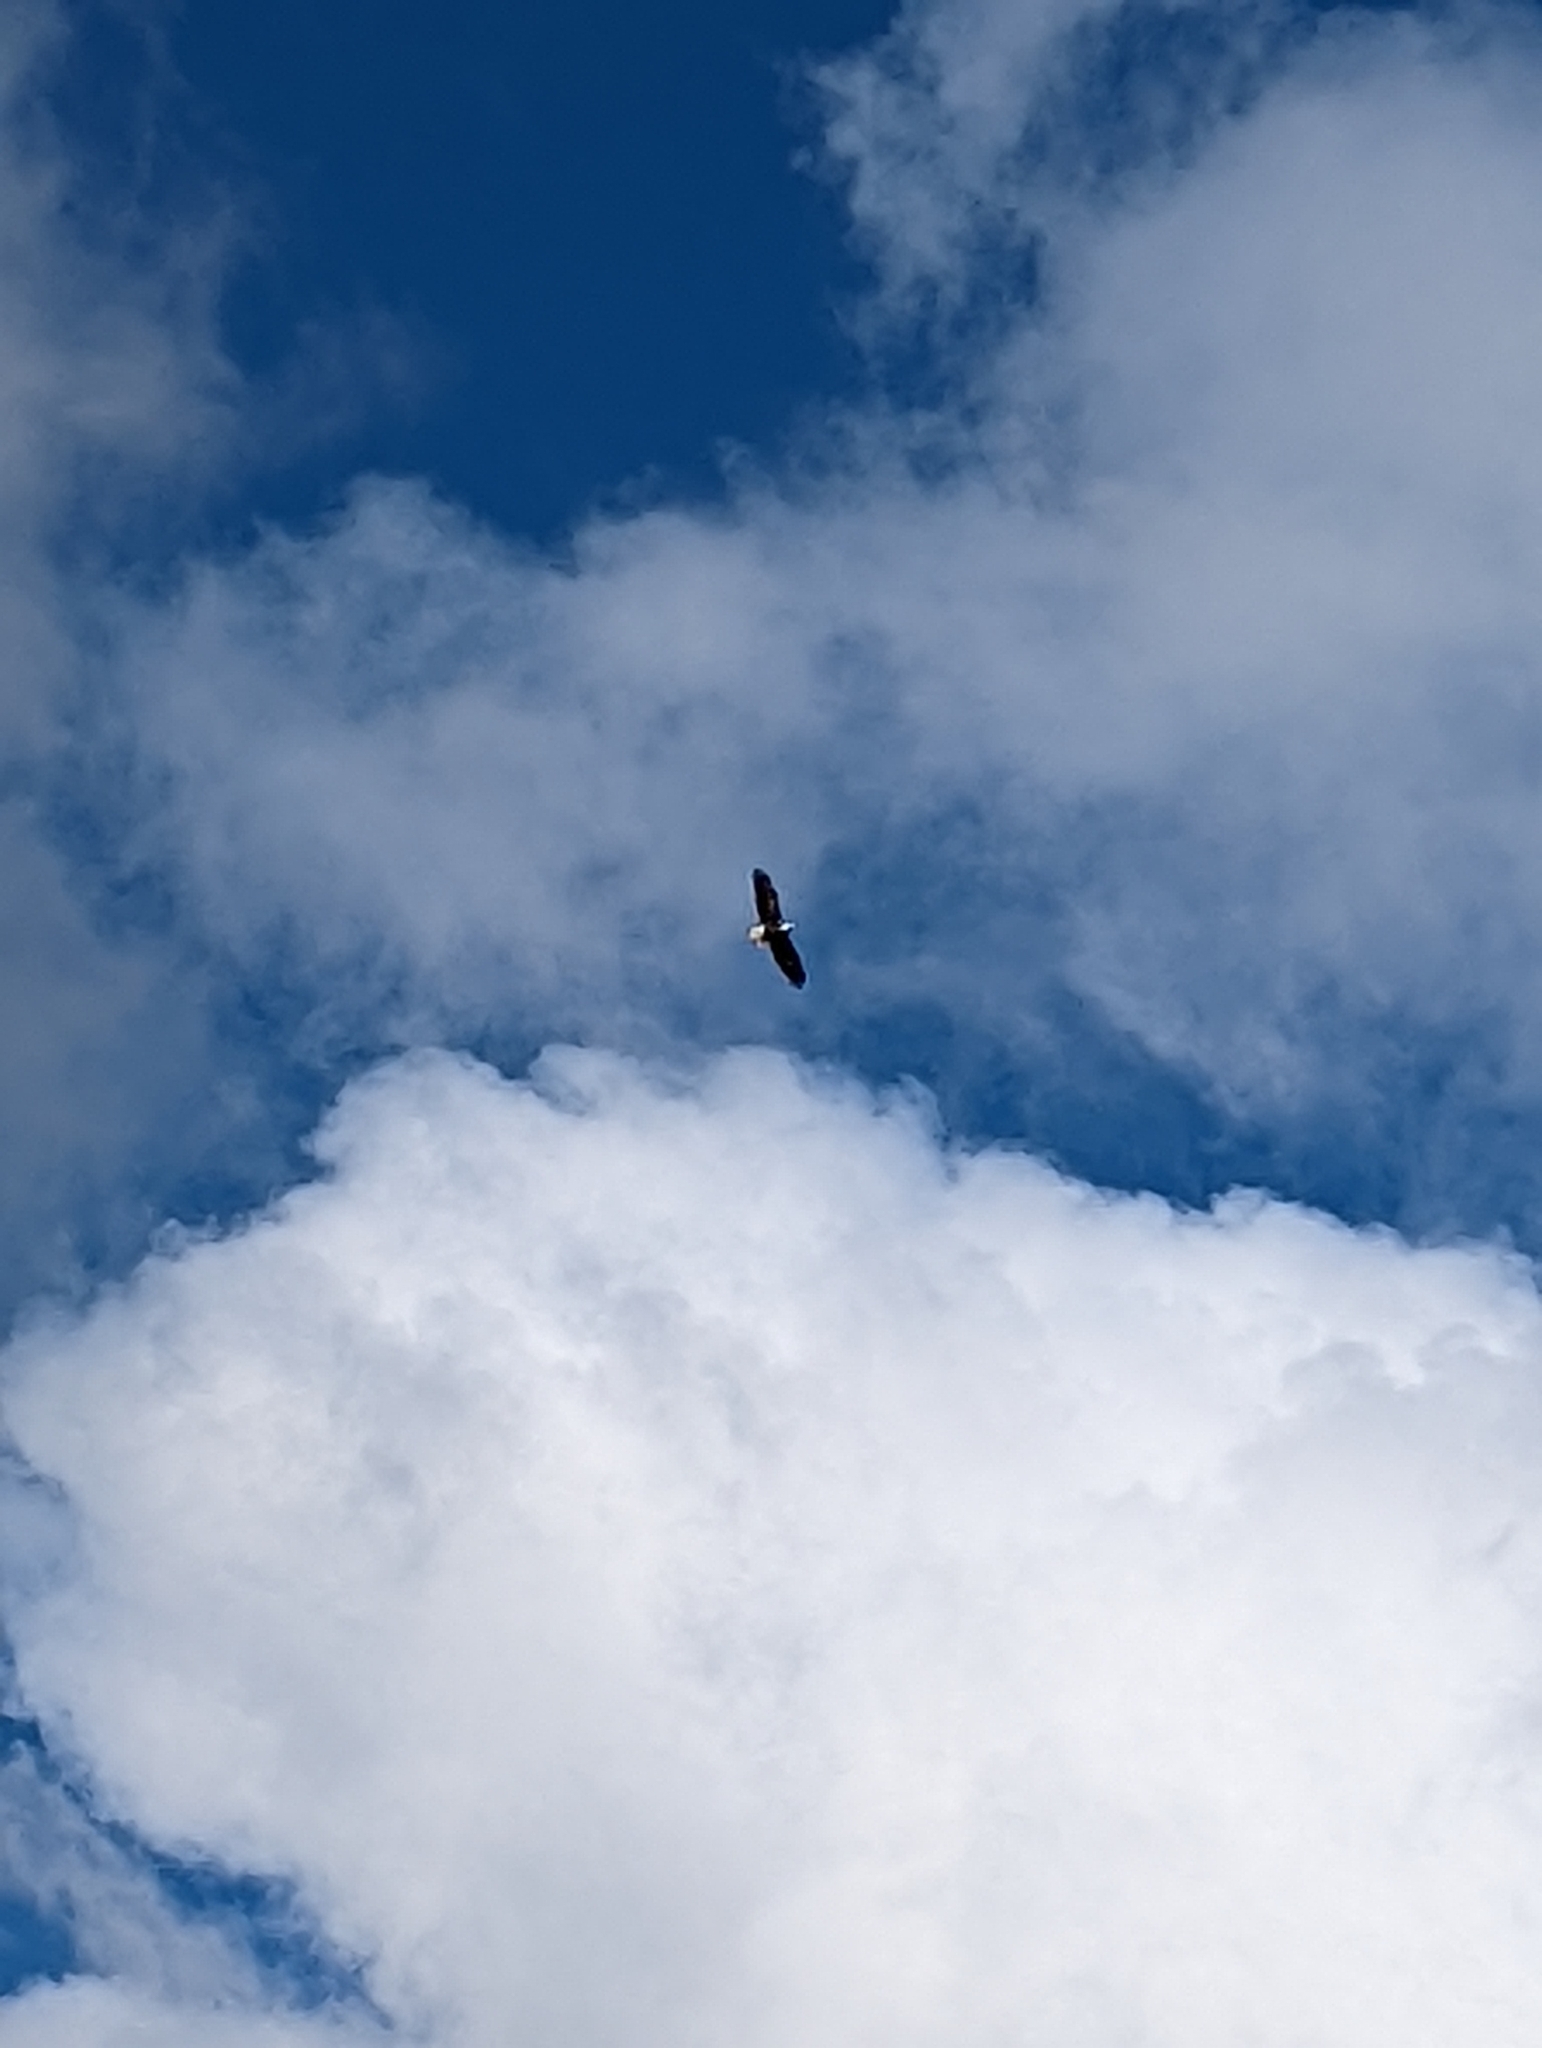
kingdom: Animalia
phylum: Chordata
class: Aves
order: Accipitriformes
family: Accipitridae
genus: Haliaeetus
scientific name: Haliaeetus leucocephalus
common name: Bald eagle
